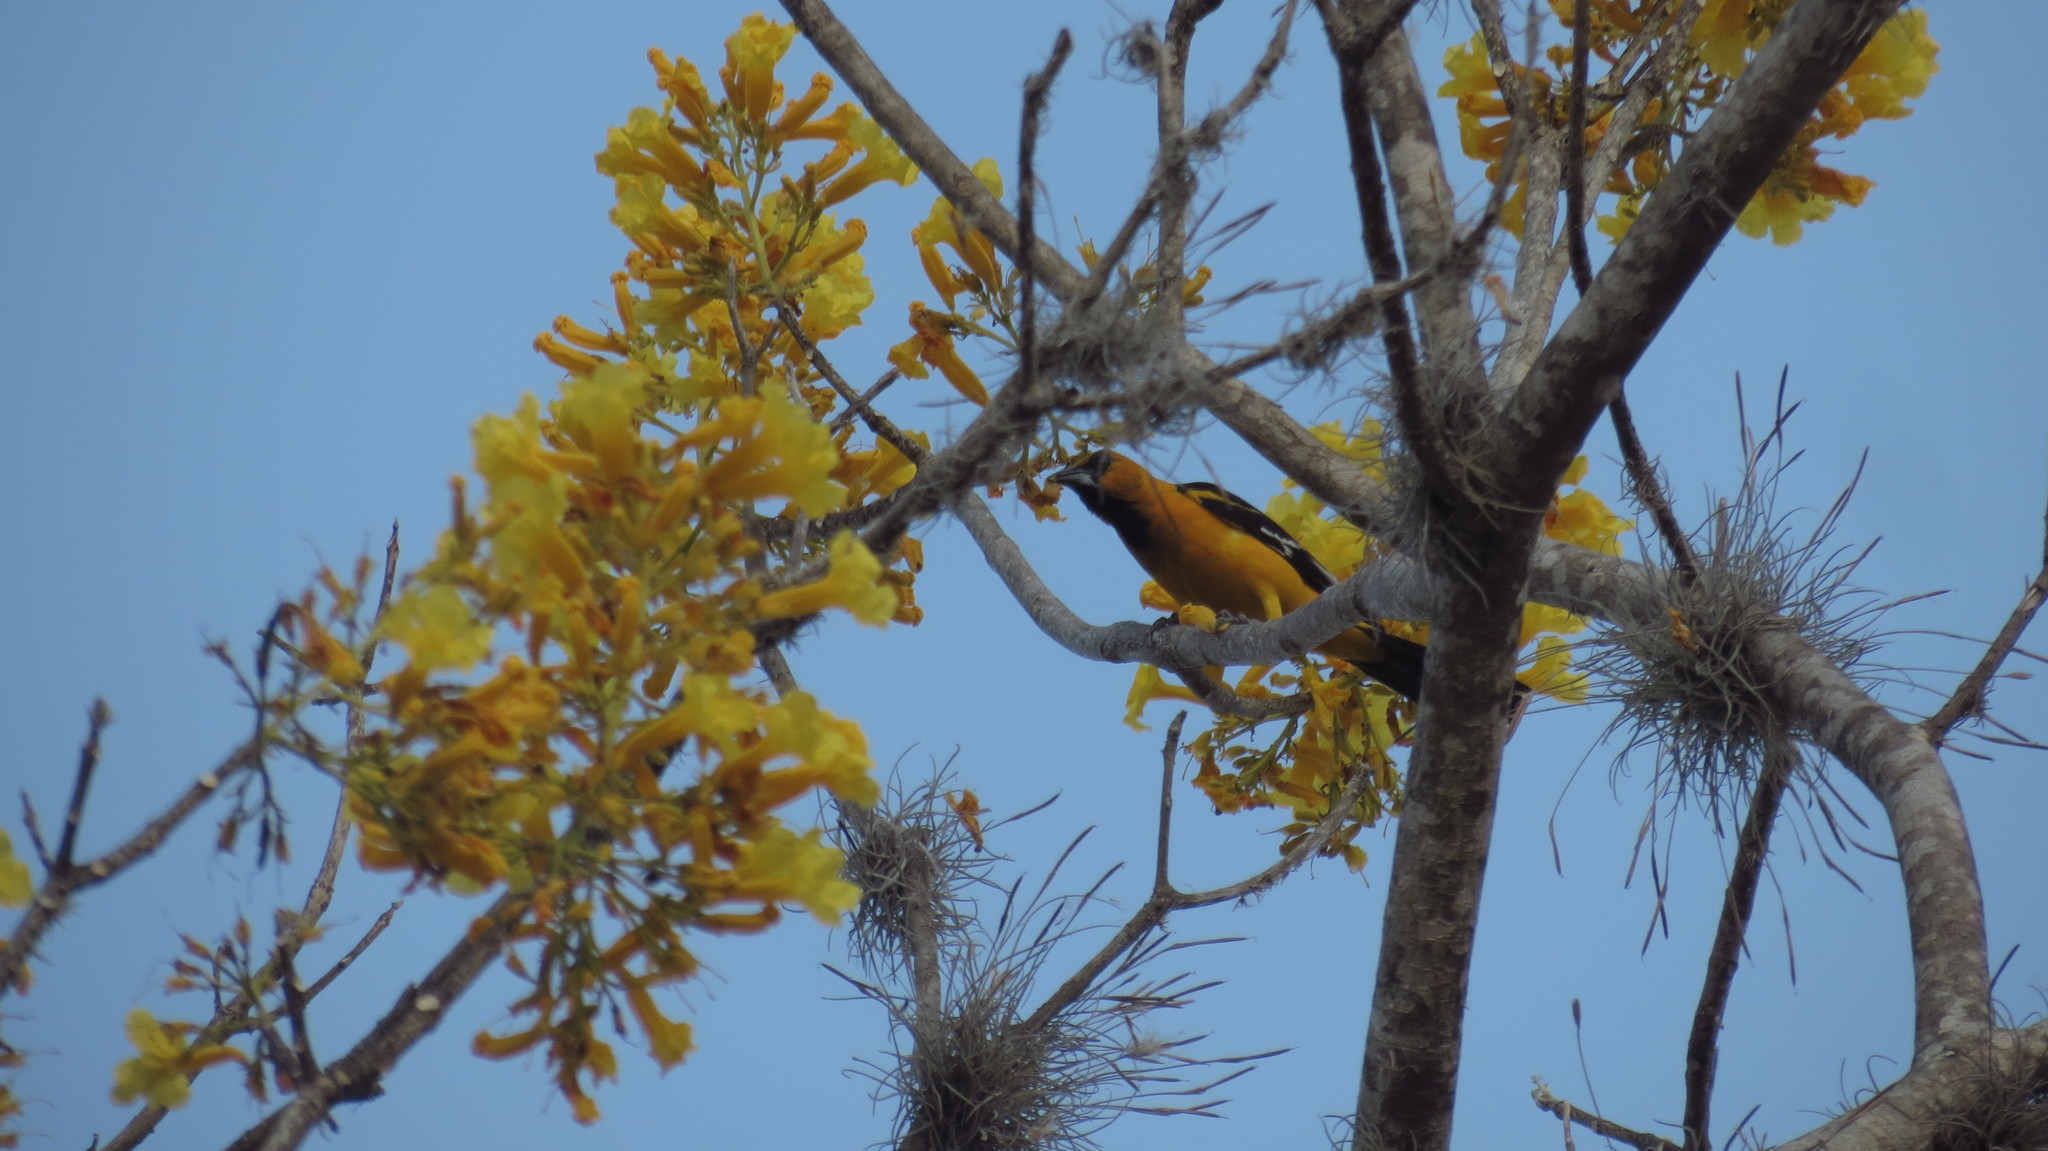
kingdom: Animalia
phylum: Chordata
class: Aves
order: Passeriformes
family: Icteridae
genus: Icterus
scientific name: Icterus gularis
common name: Altamira oriole
